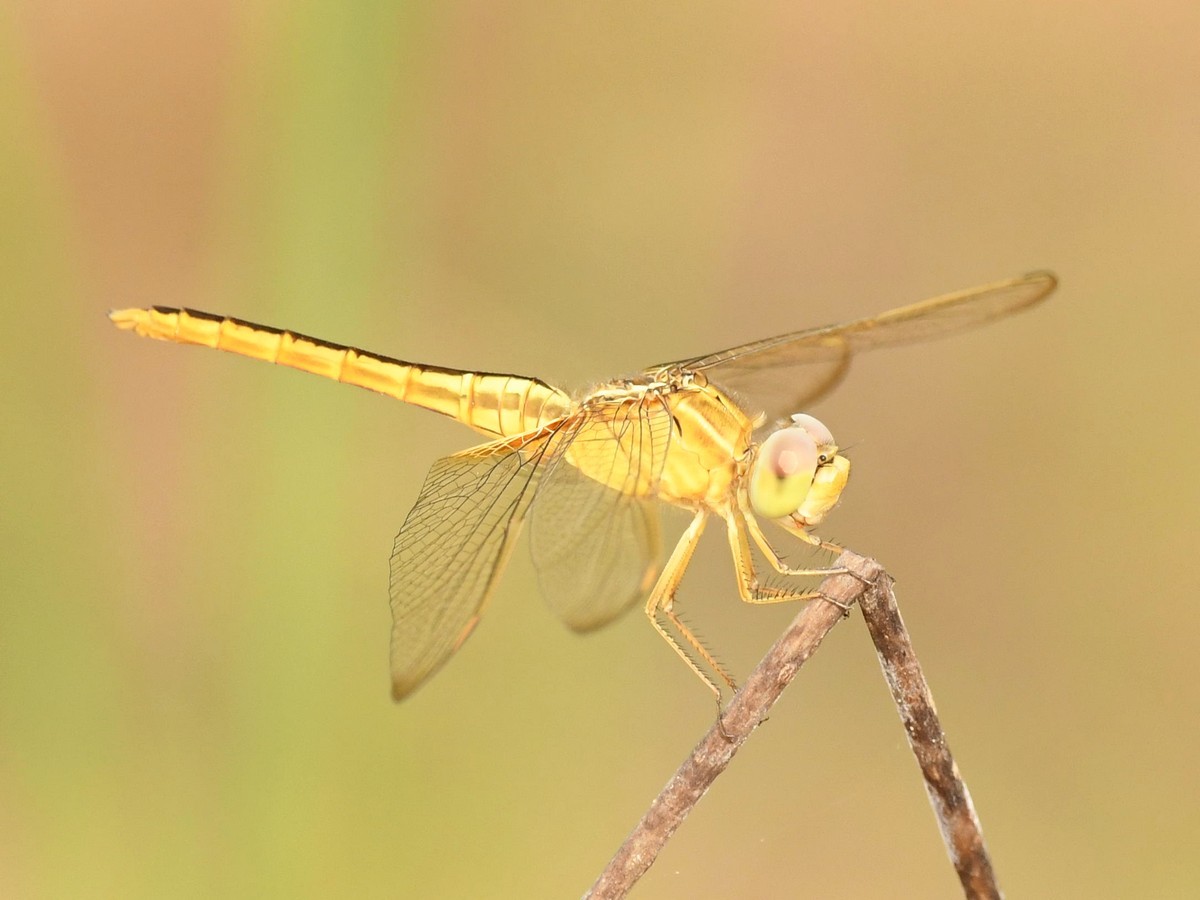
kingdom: Animalia
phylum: Arthropoda
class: Insecta
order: Odonata
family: Libellulidae
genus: Crocothemis
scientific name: Crocothemis servilia
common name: Scarlet skimmer
